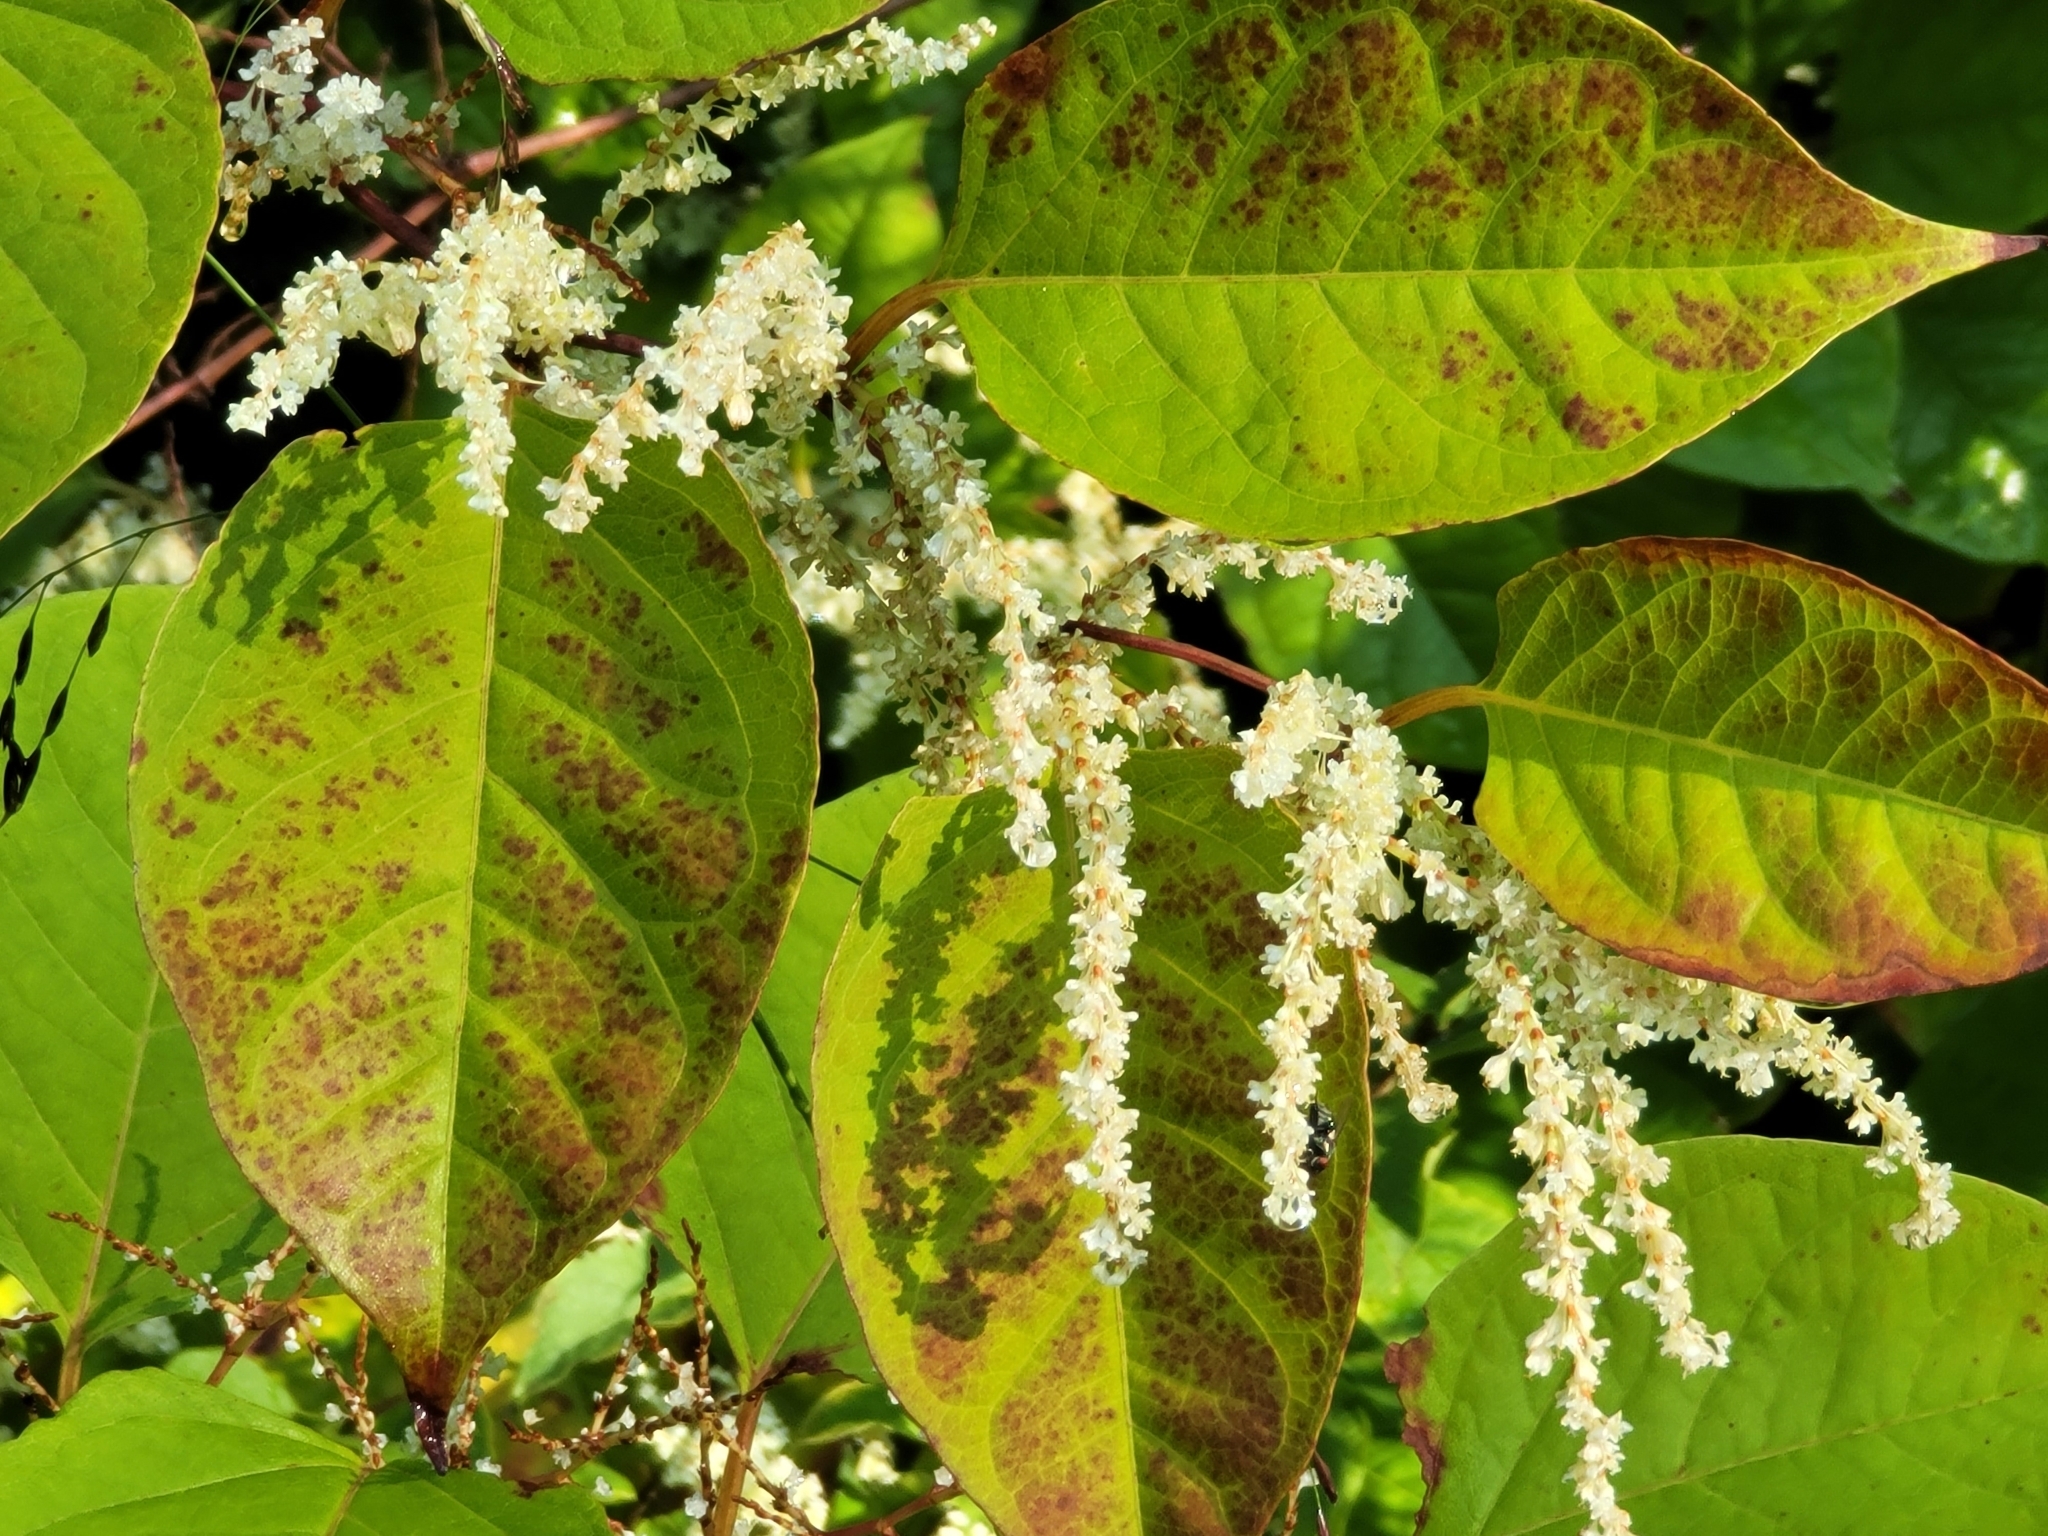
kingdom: Plantae
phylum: Tracheophyta
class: Magnoliopsida
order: Caryophyllales
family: Polygonaceae
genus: Reynoutria
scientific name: Reynoutria japonica
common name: Japanese knotweed
